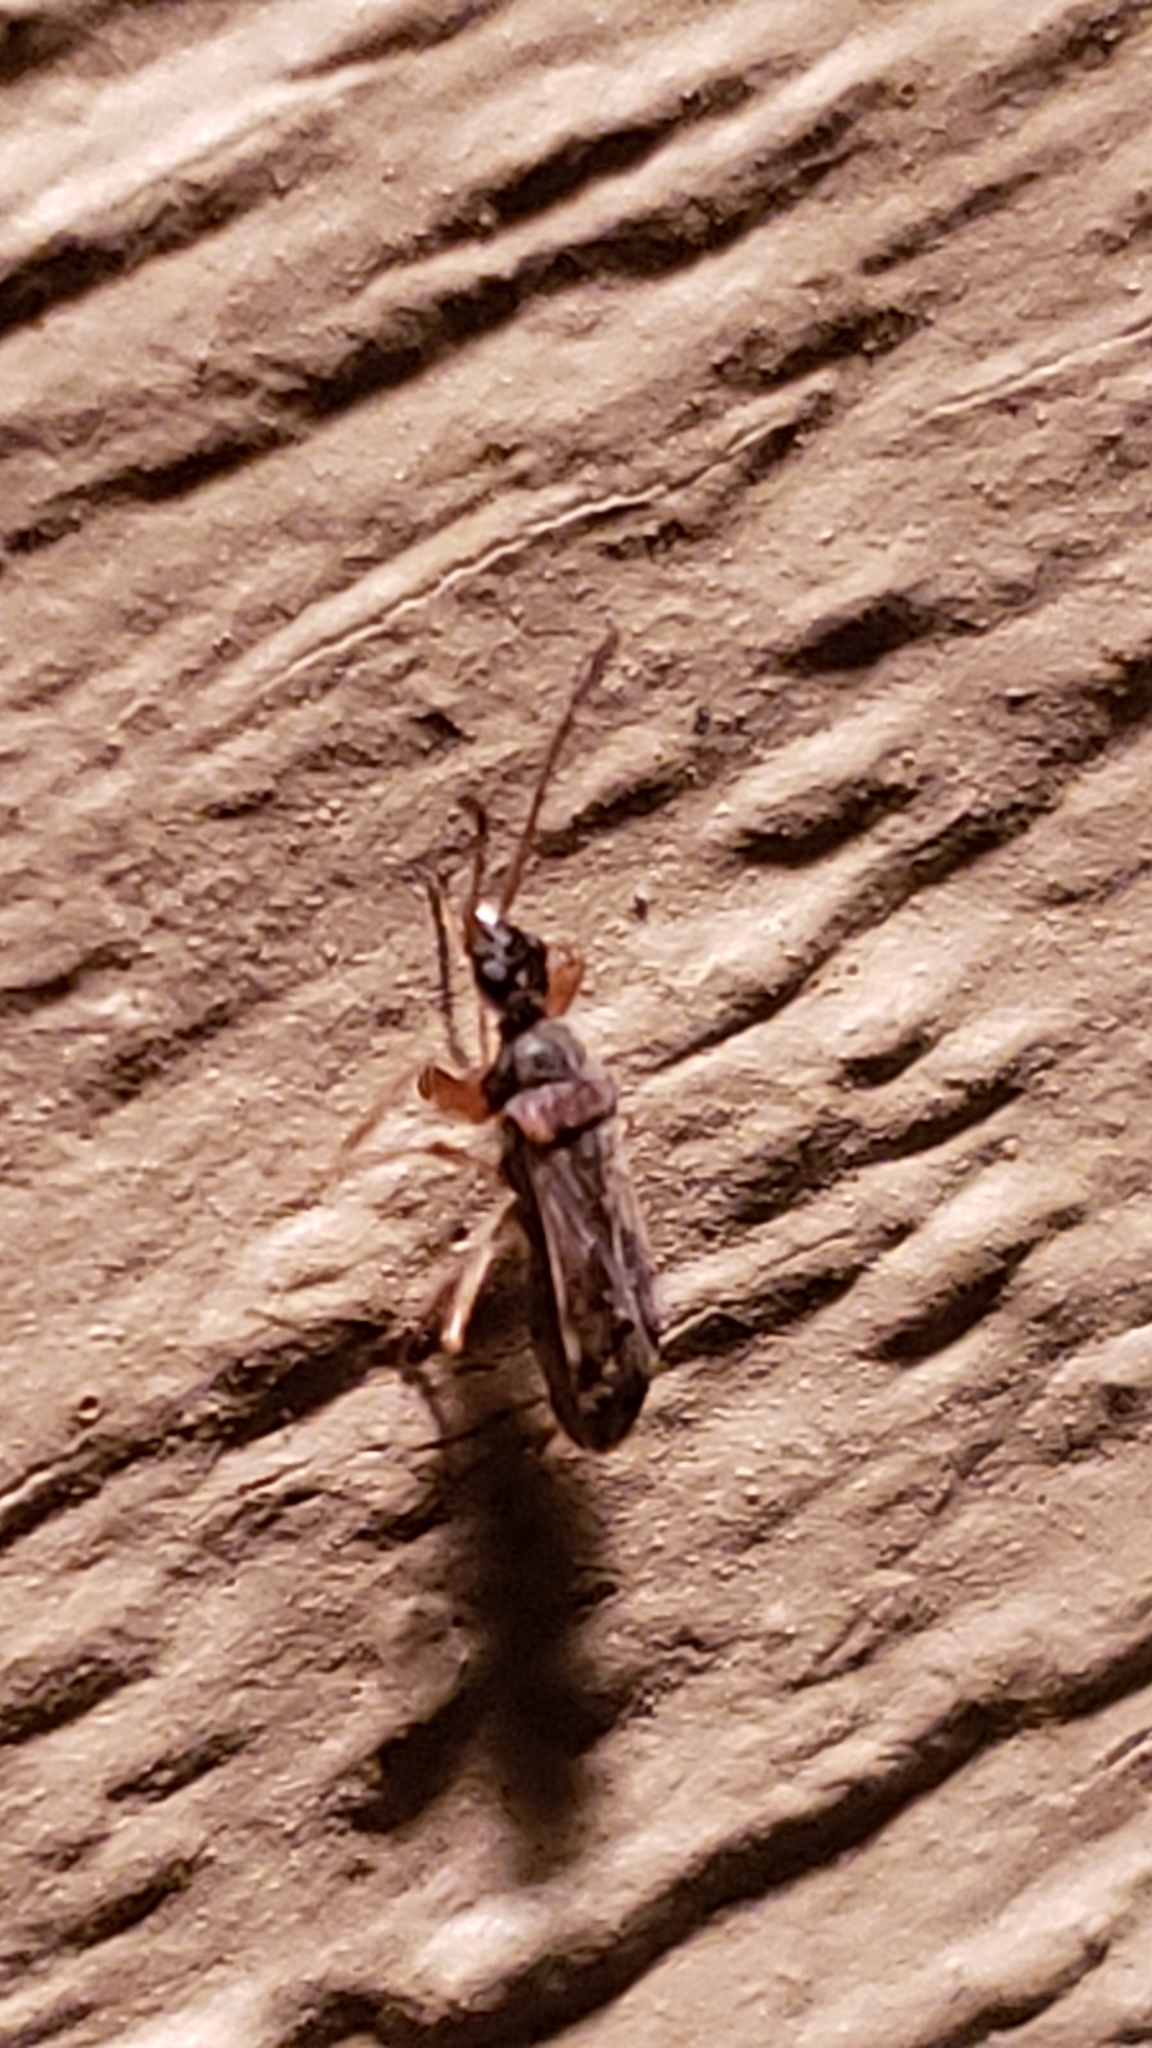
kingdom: Animalia
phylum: Arthropoda
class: Insecta
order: Hemiptera
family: Rhyparochromidae
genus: Heraeus
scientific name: Heraeus plebejus
